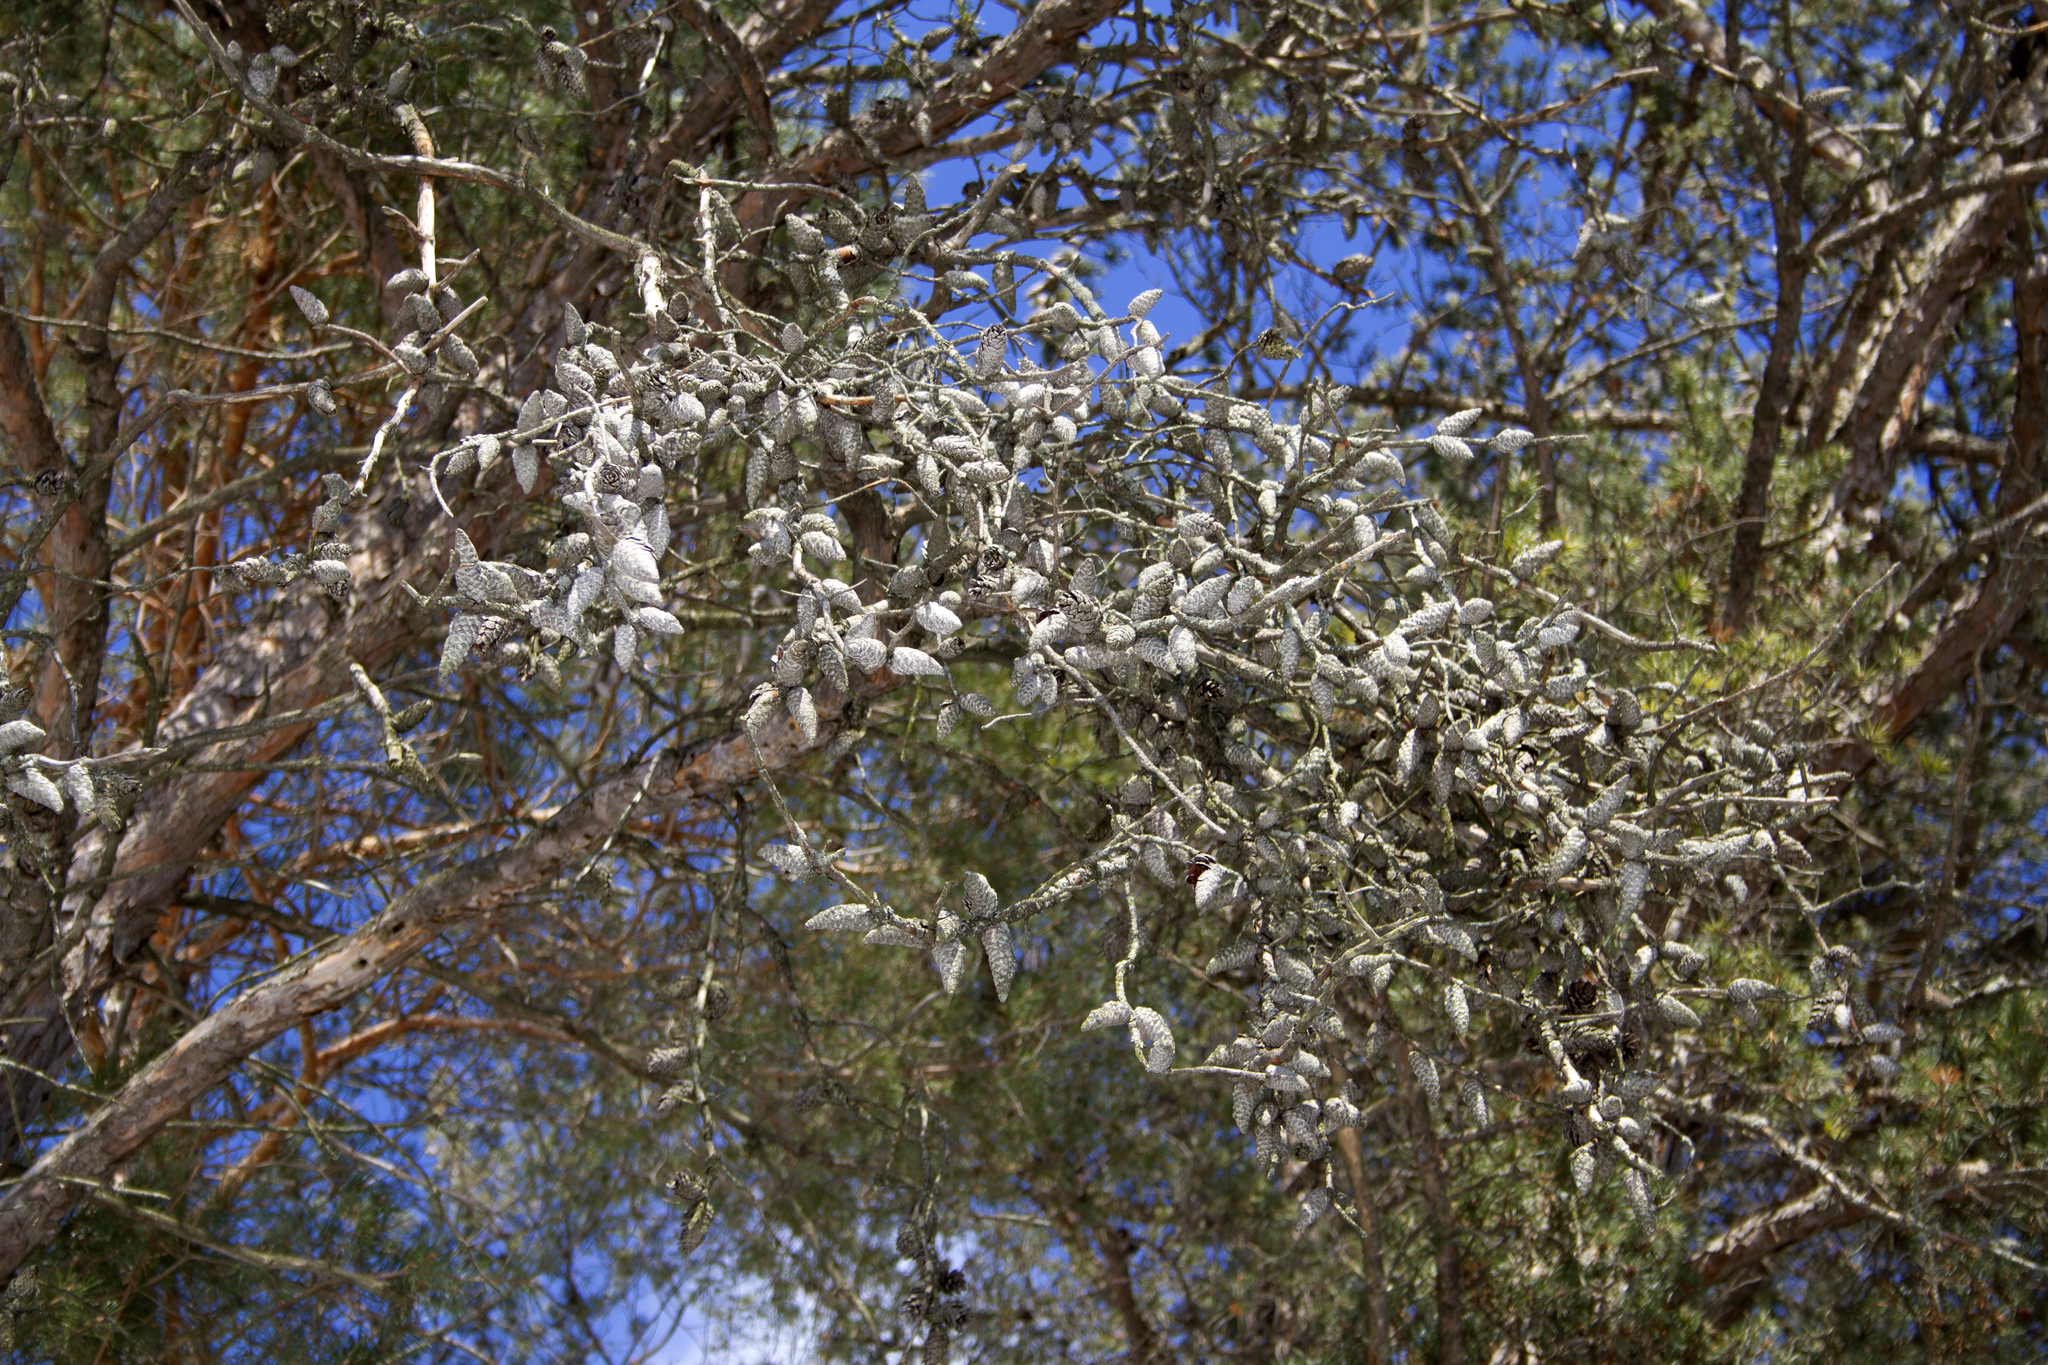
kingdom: Plantae
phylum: Tracheophyta
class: Pinopsida
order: Pinales
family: Pinaceae
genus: Pinus
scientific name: Pinus sylvestris
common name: Scots pine
